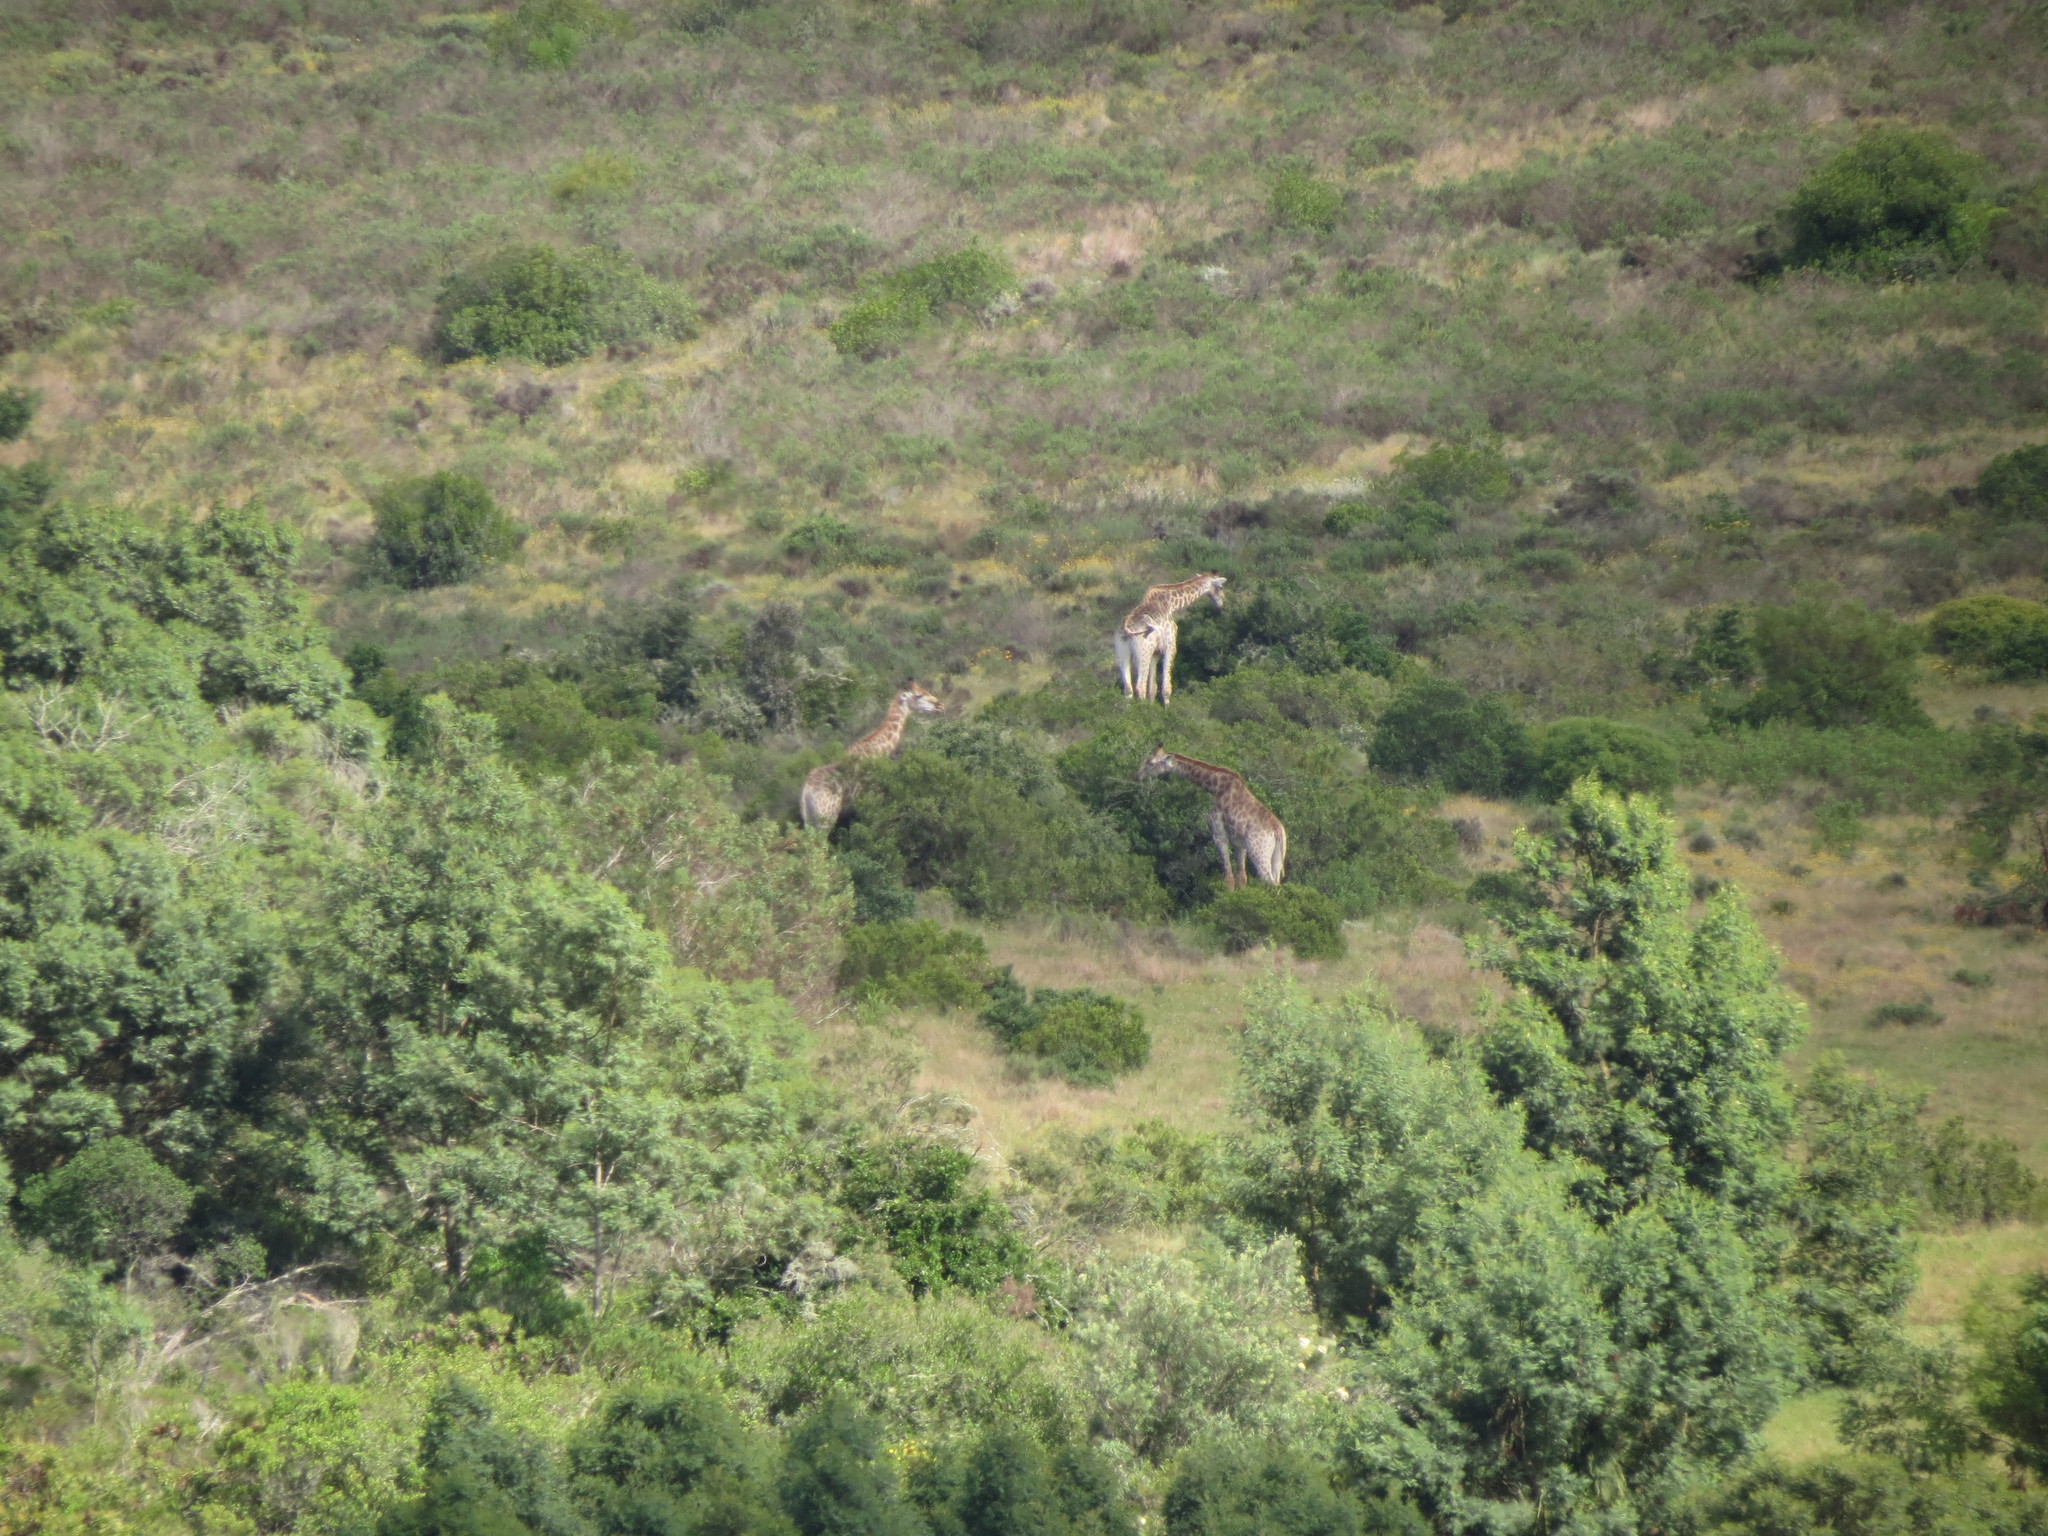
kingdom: Animalia
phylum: Chordata
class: Mammalia
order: Artiodactyla
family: Giraffidae
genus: Giraffa
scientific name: Giraffa giraffa
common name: Southern giraffe
